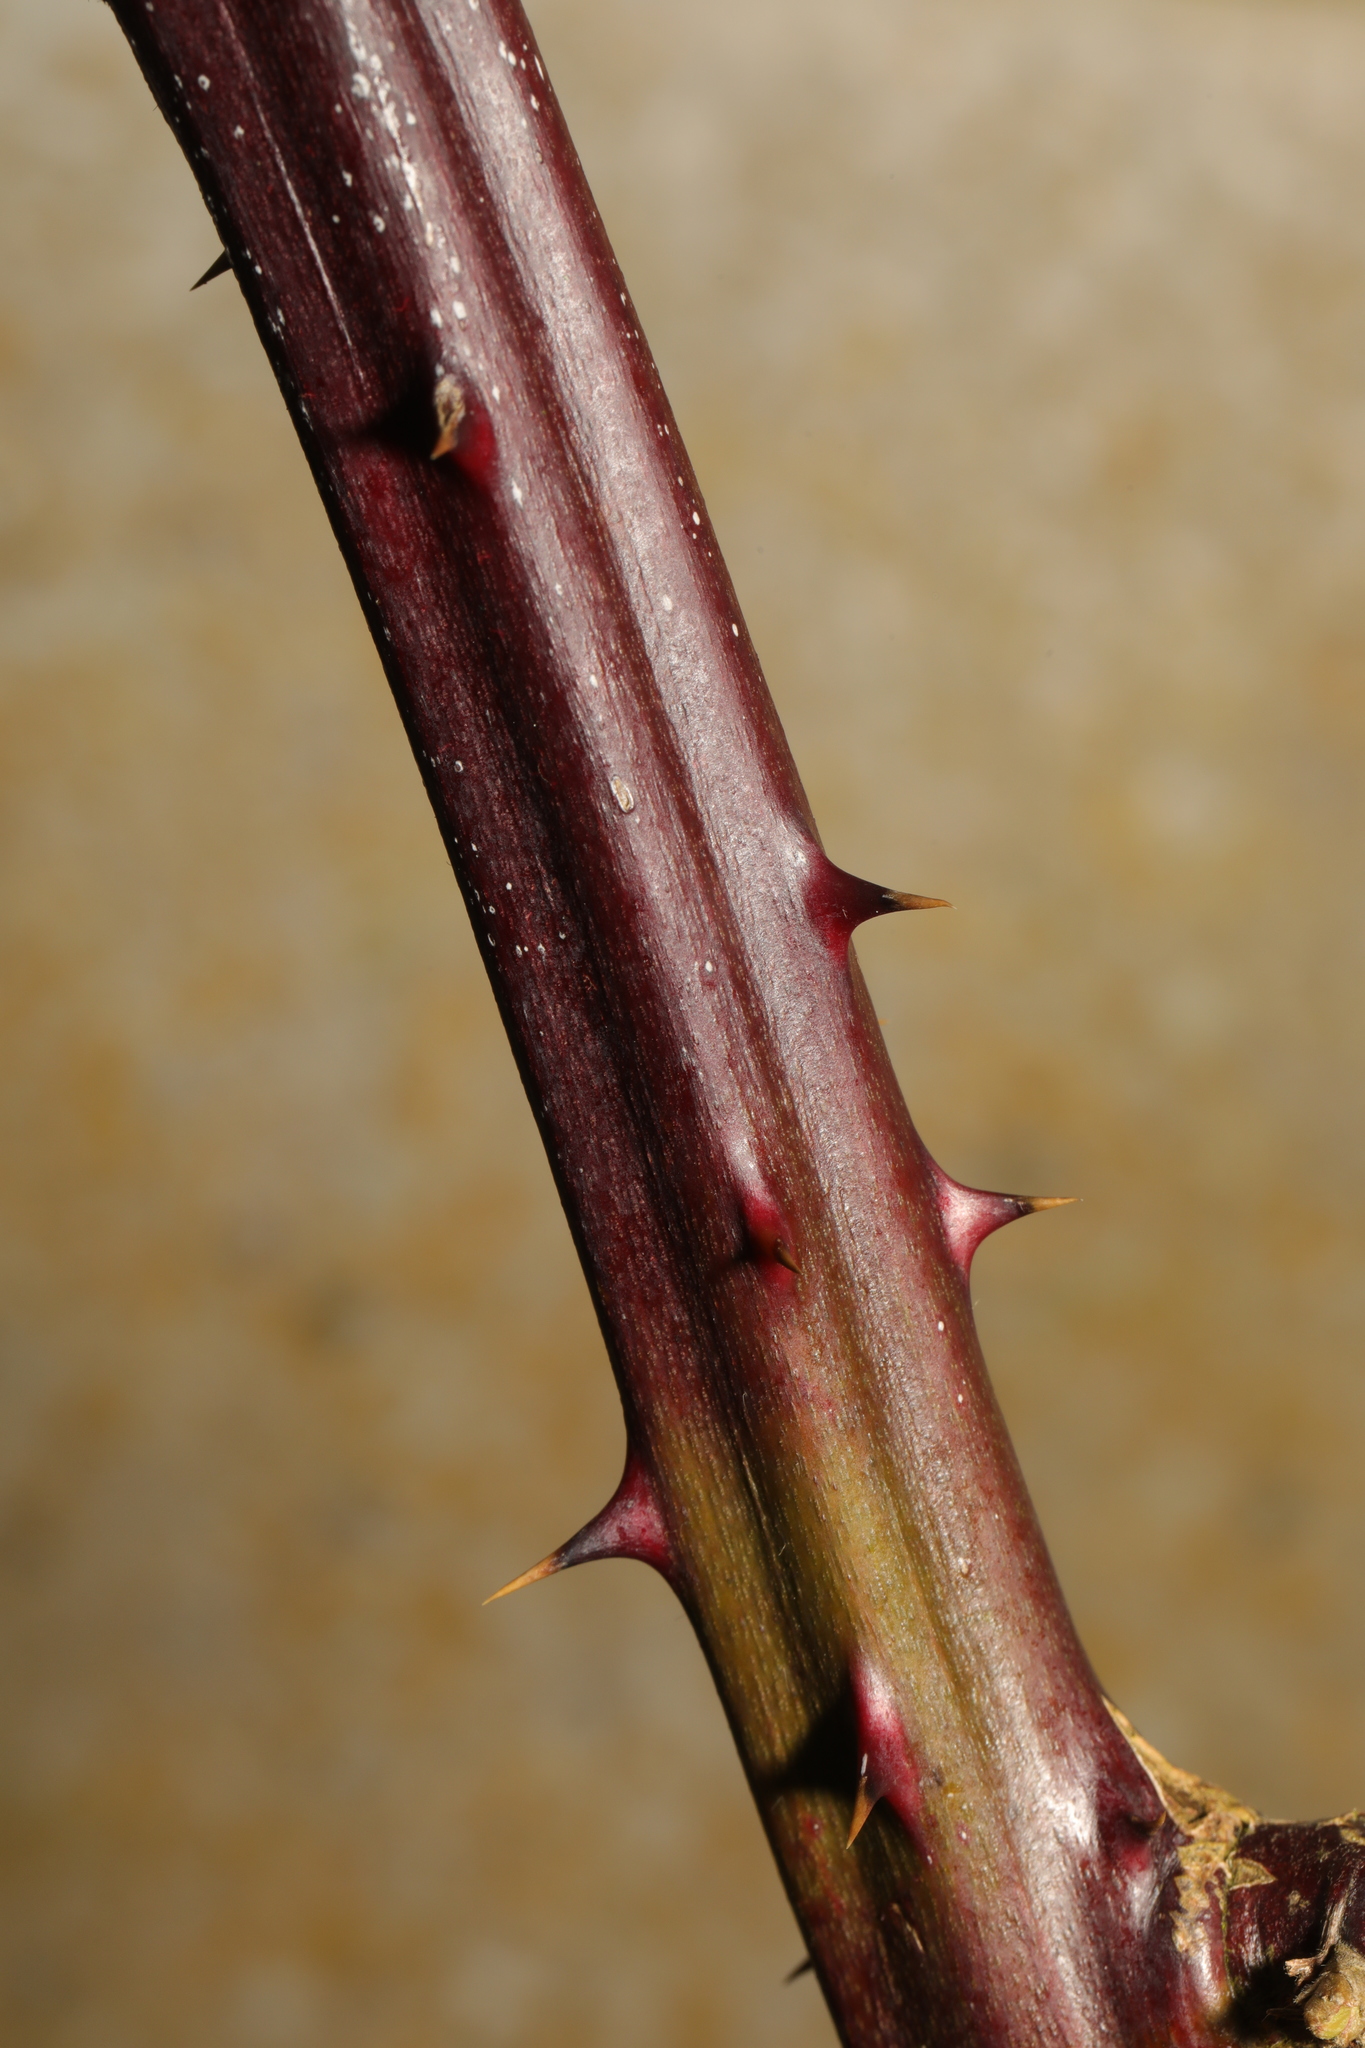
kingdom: Plantae
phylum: Tracheophyta
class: Magnoliopsida
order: Rosales
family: Rosaceae
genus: Rubus
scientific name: Rubus armeniacus
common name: Himalayan blackberry
